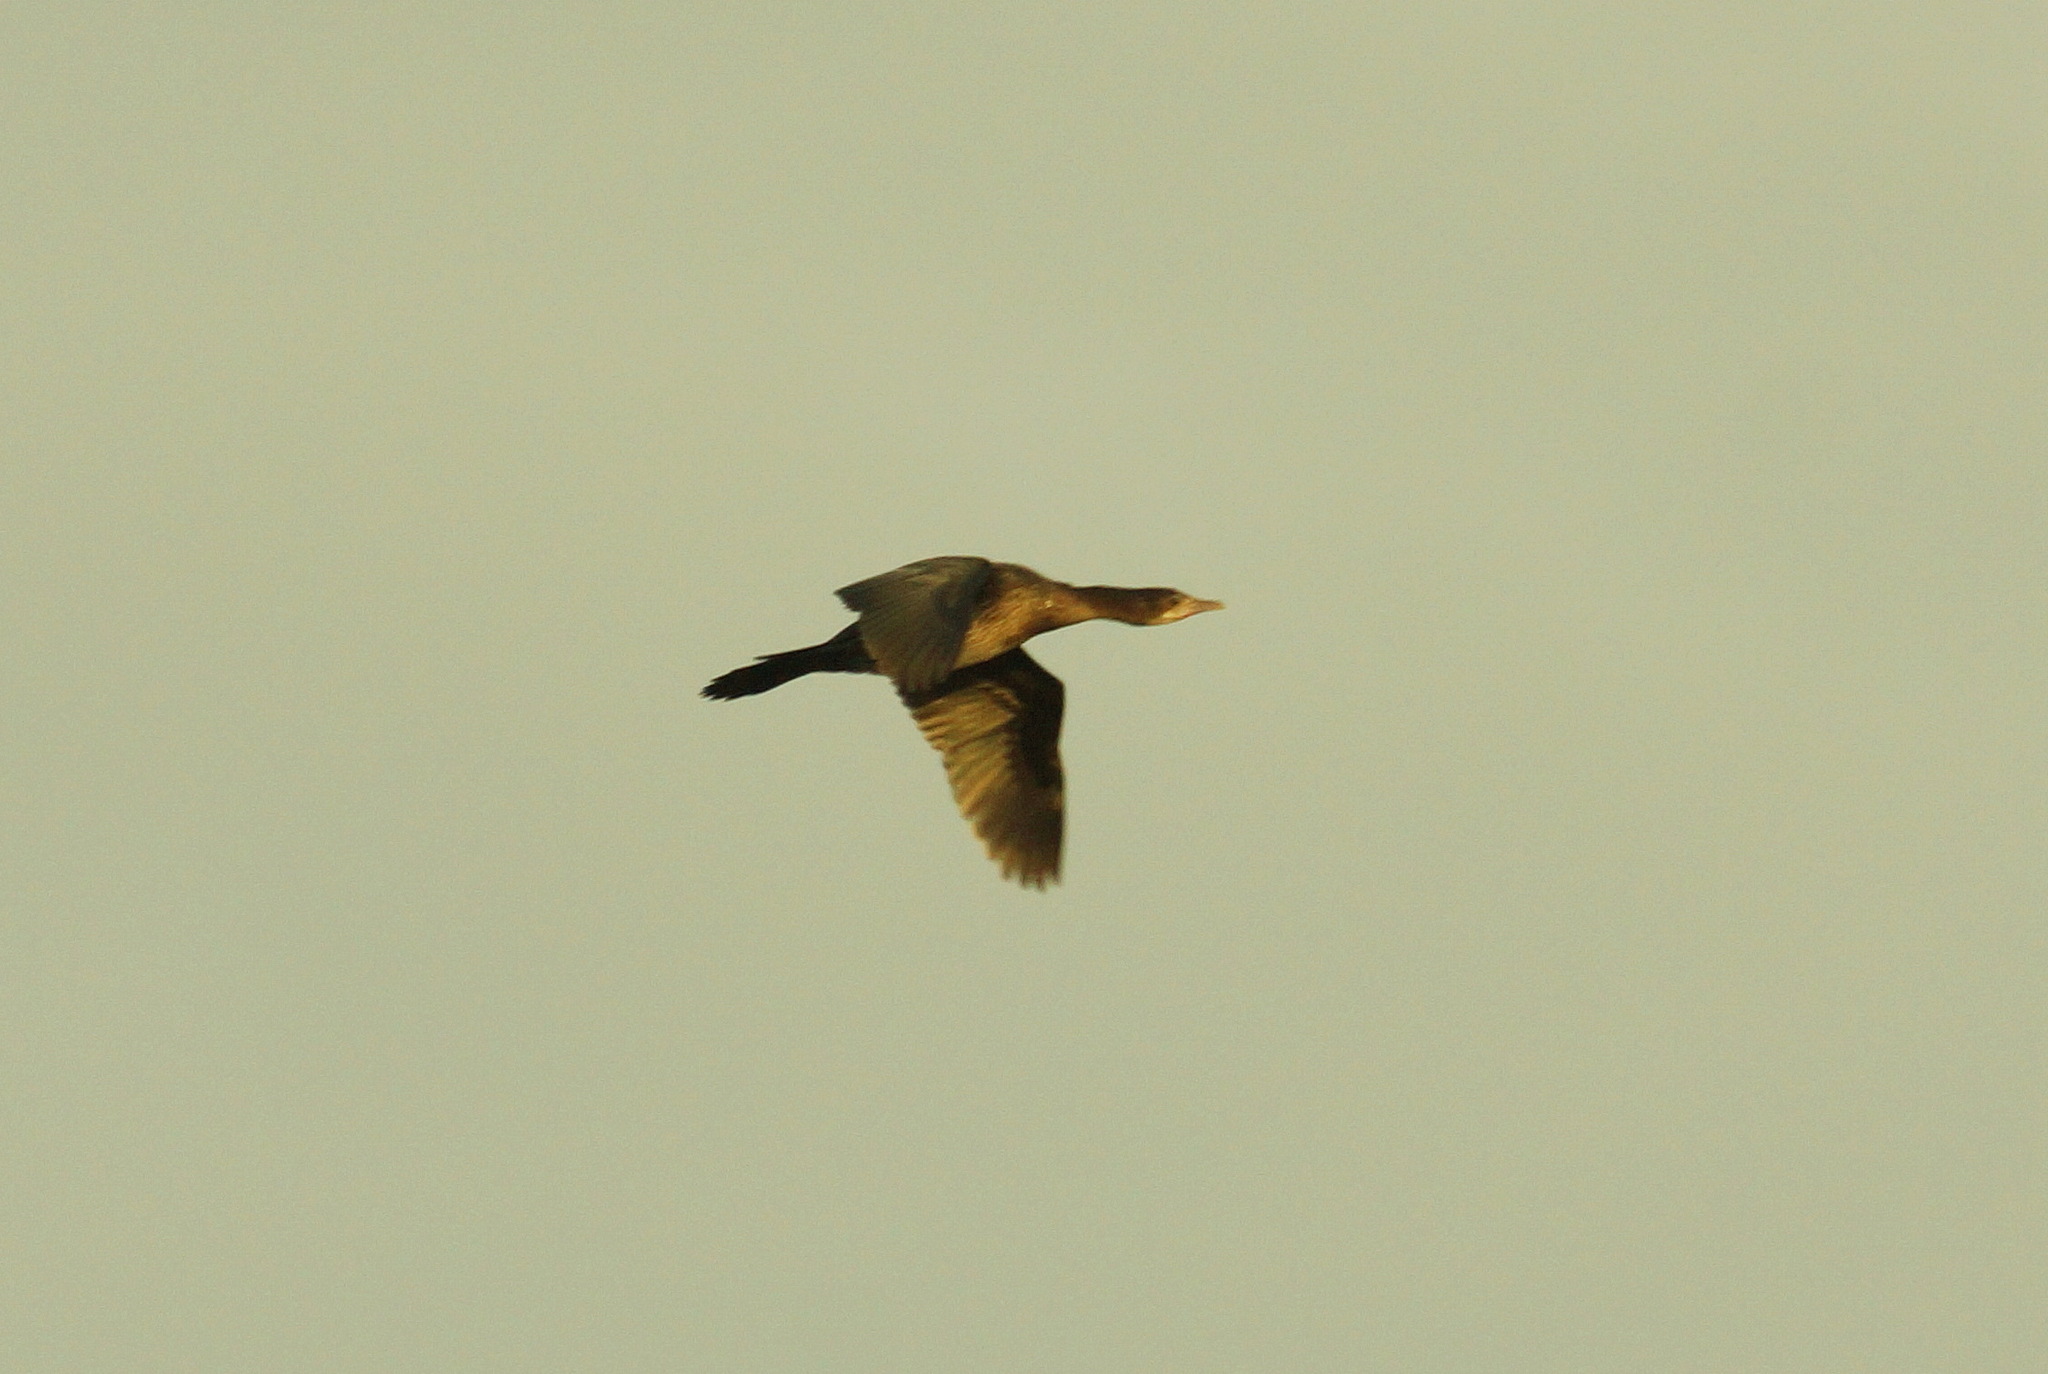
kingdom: Animalia
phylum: Chordata
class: Aves
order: Suliformes
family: Phalacrocoracidae
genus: Microcarbo
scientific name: Microcarbo pygmaeus
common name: Pygmy cormorant
